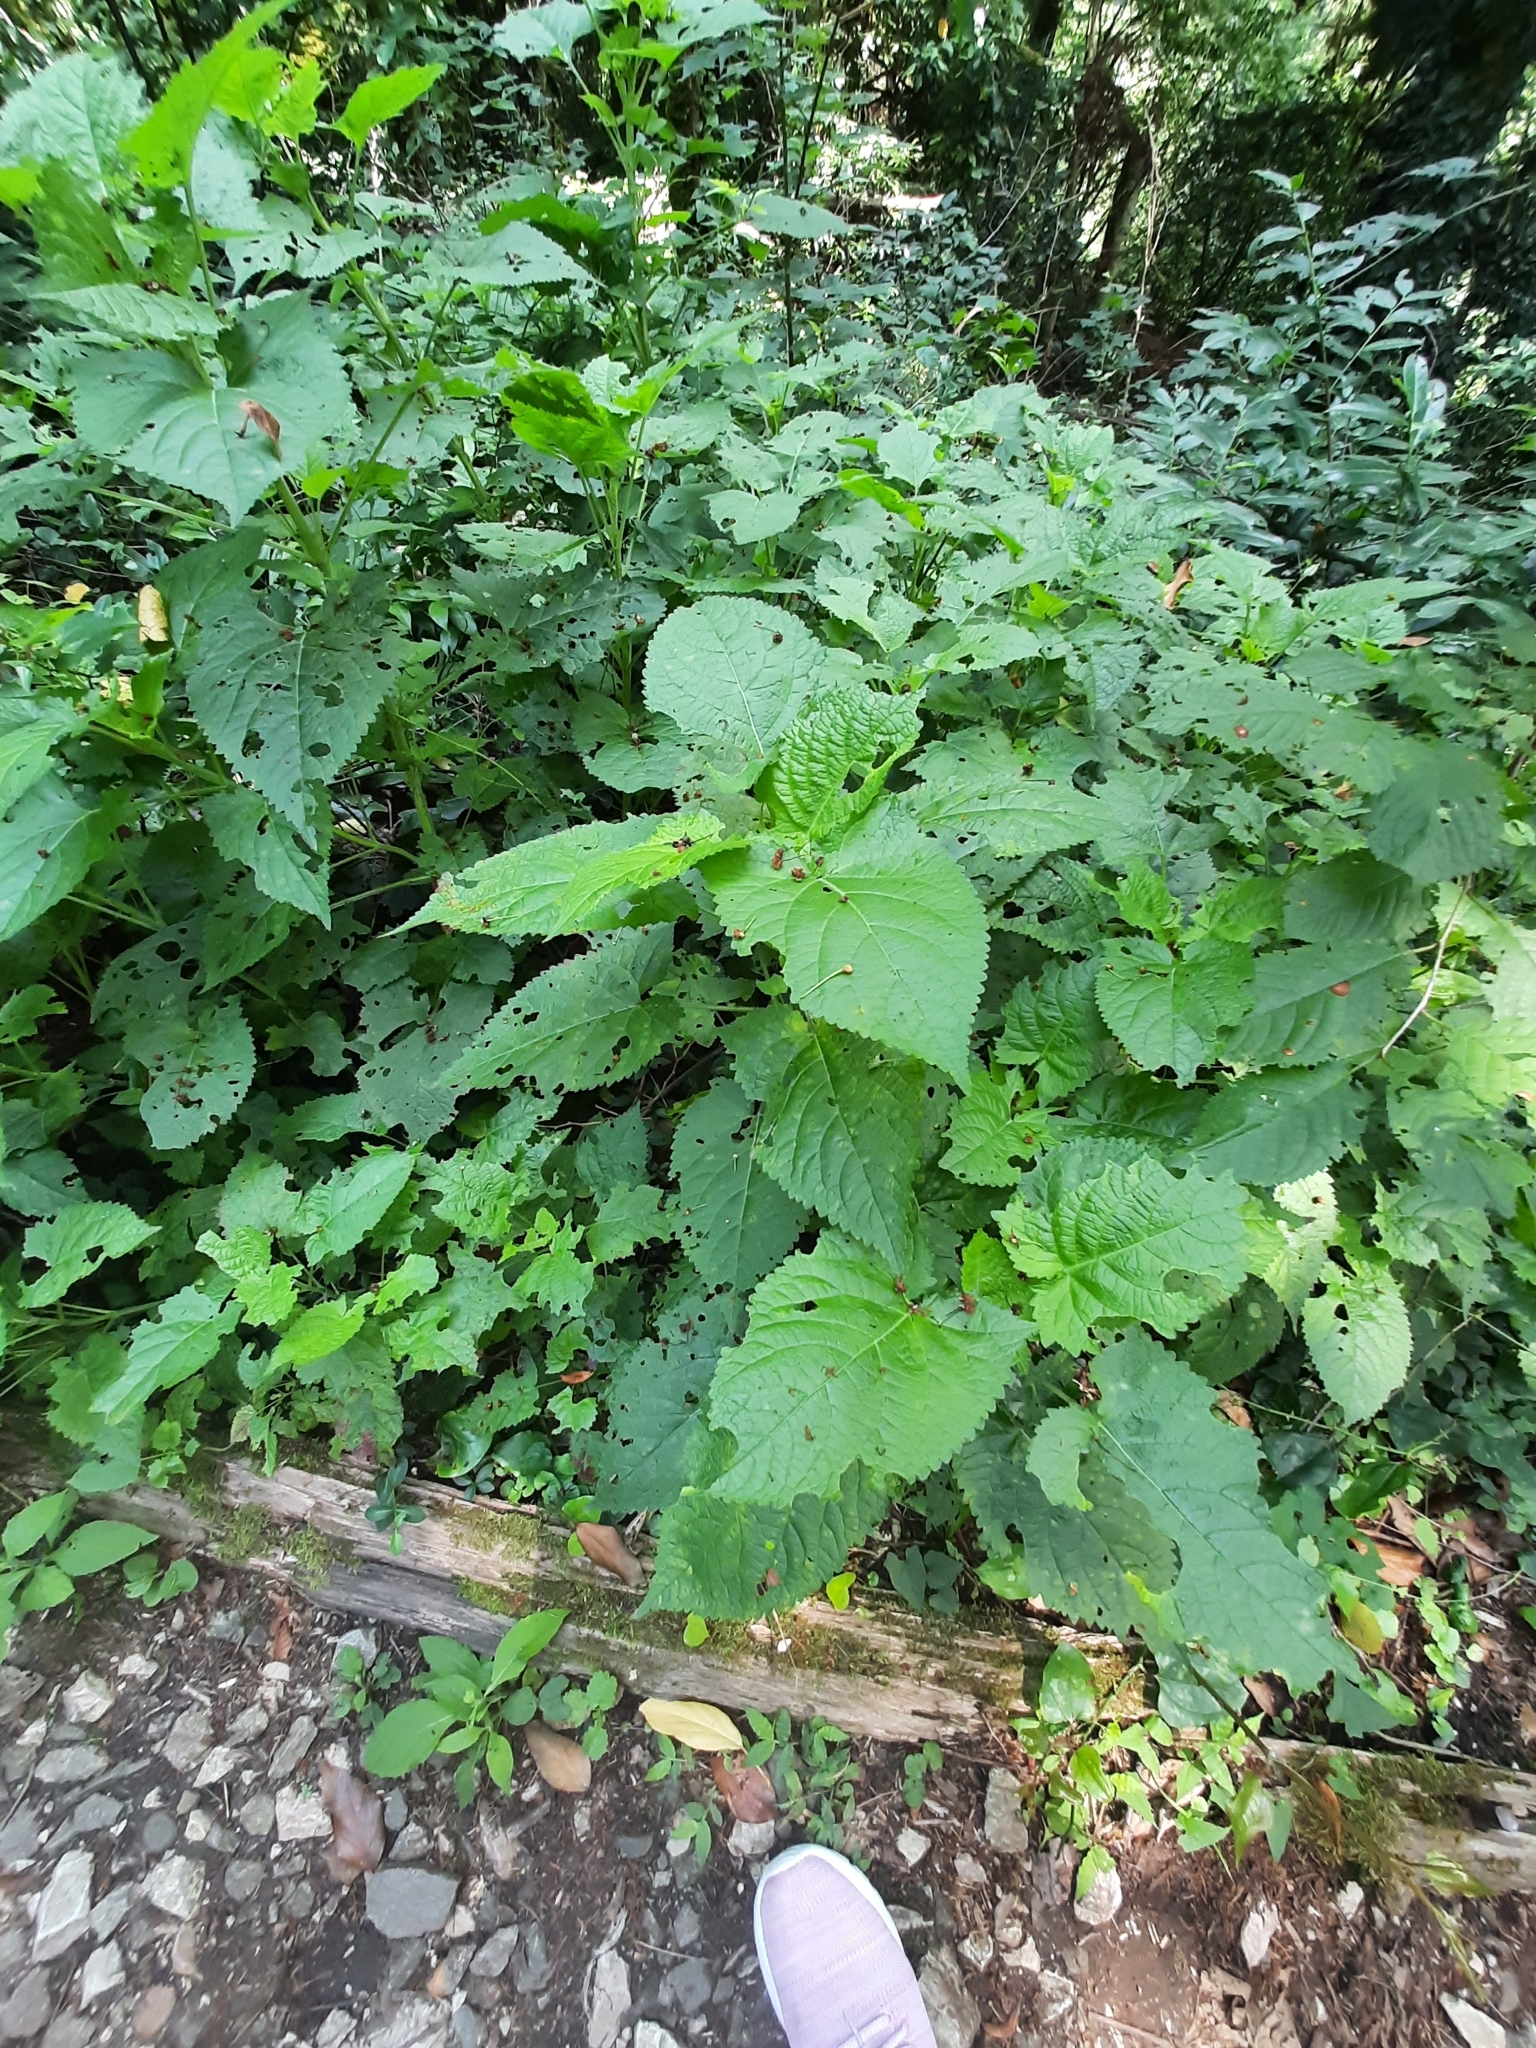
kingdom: Plantae
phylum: Tracheophyta
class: Magnoliopsida
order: Lamiales
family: Lamiaceae
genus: Salvia
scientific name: Salvia glutinosa
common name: Sticky clary
